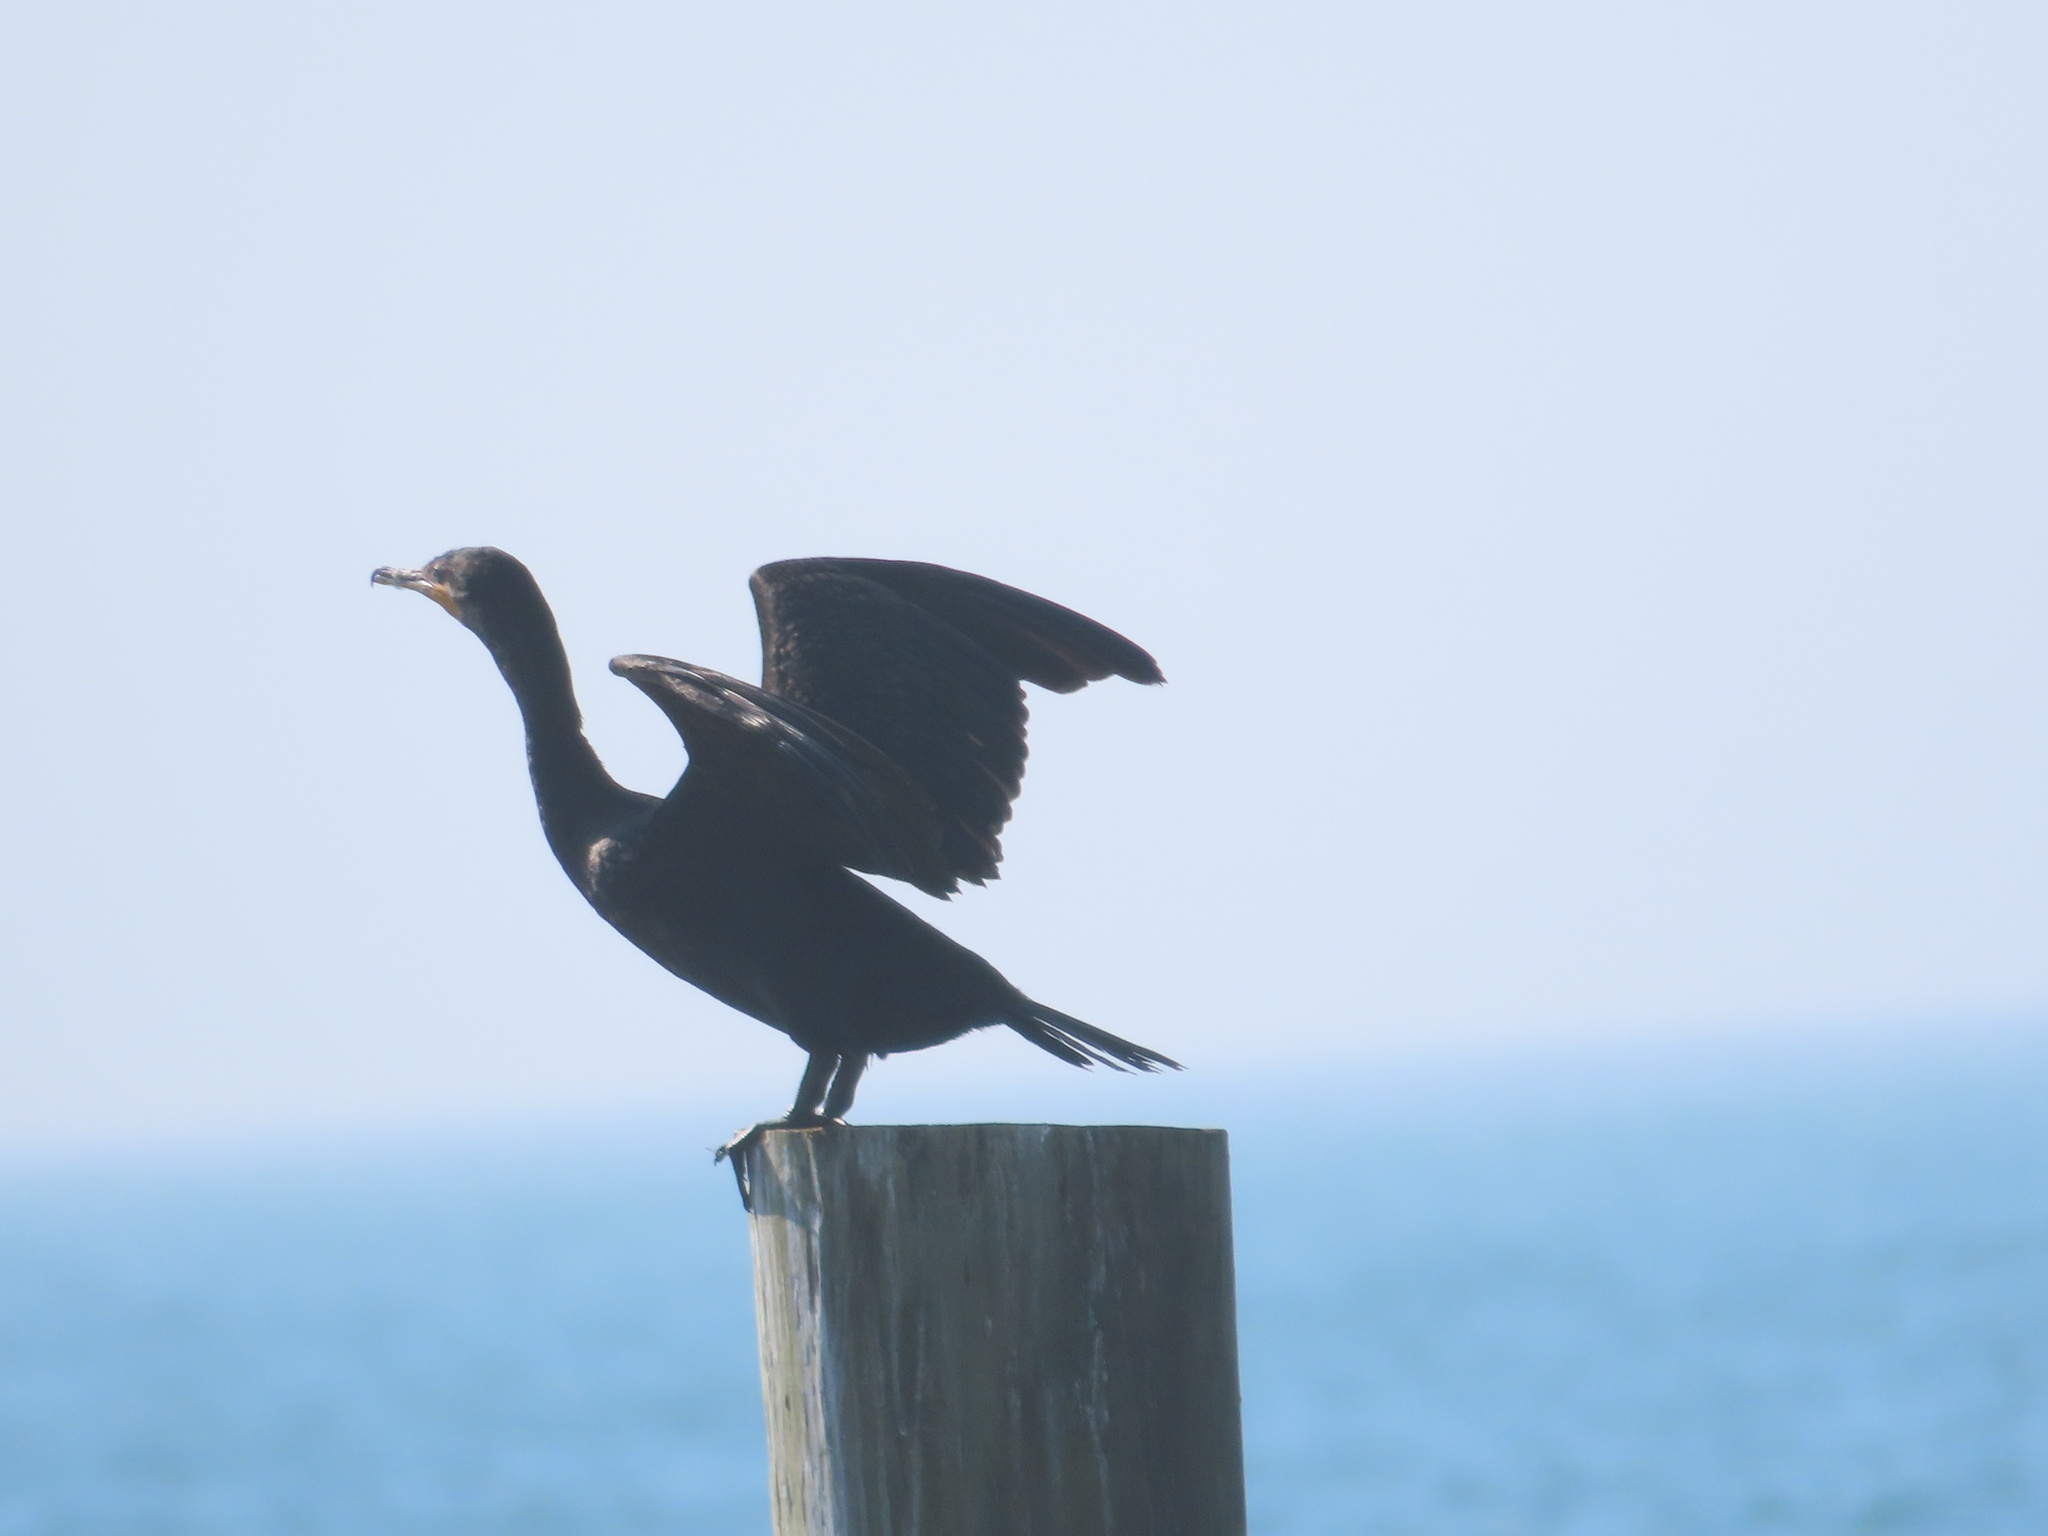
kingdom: Animalia
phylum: Chordata
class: Aves
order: Suliformes
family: Phalacrocoracidae
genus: Phalacrocorax
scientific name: Phalacrocorax auritus
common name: Double-crested cormorant
